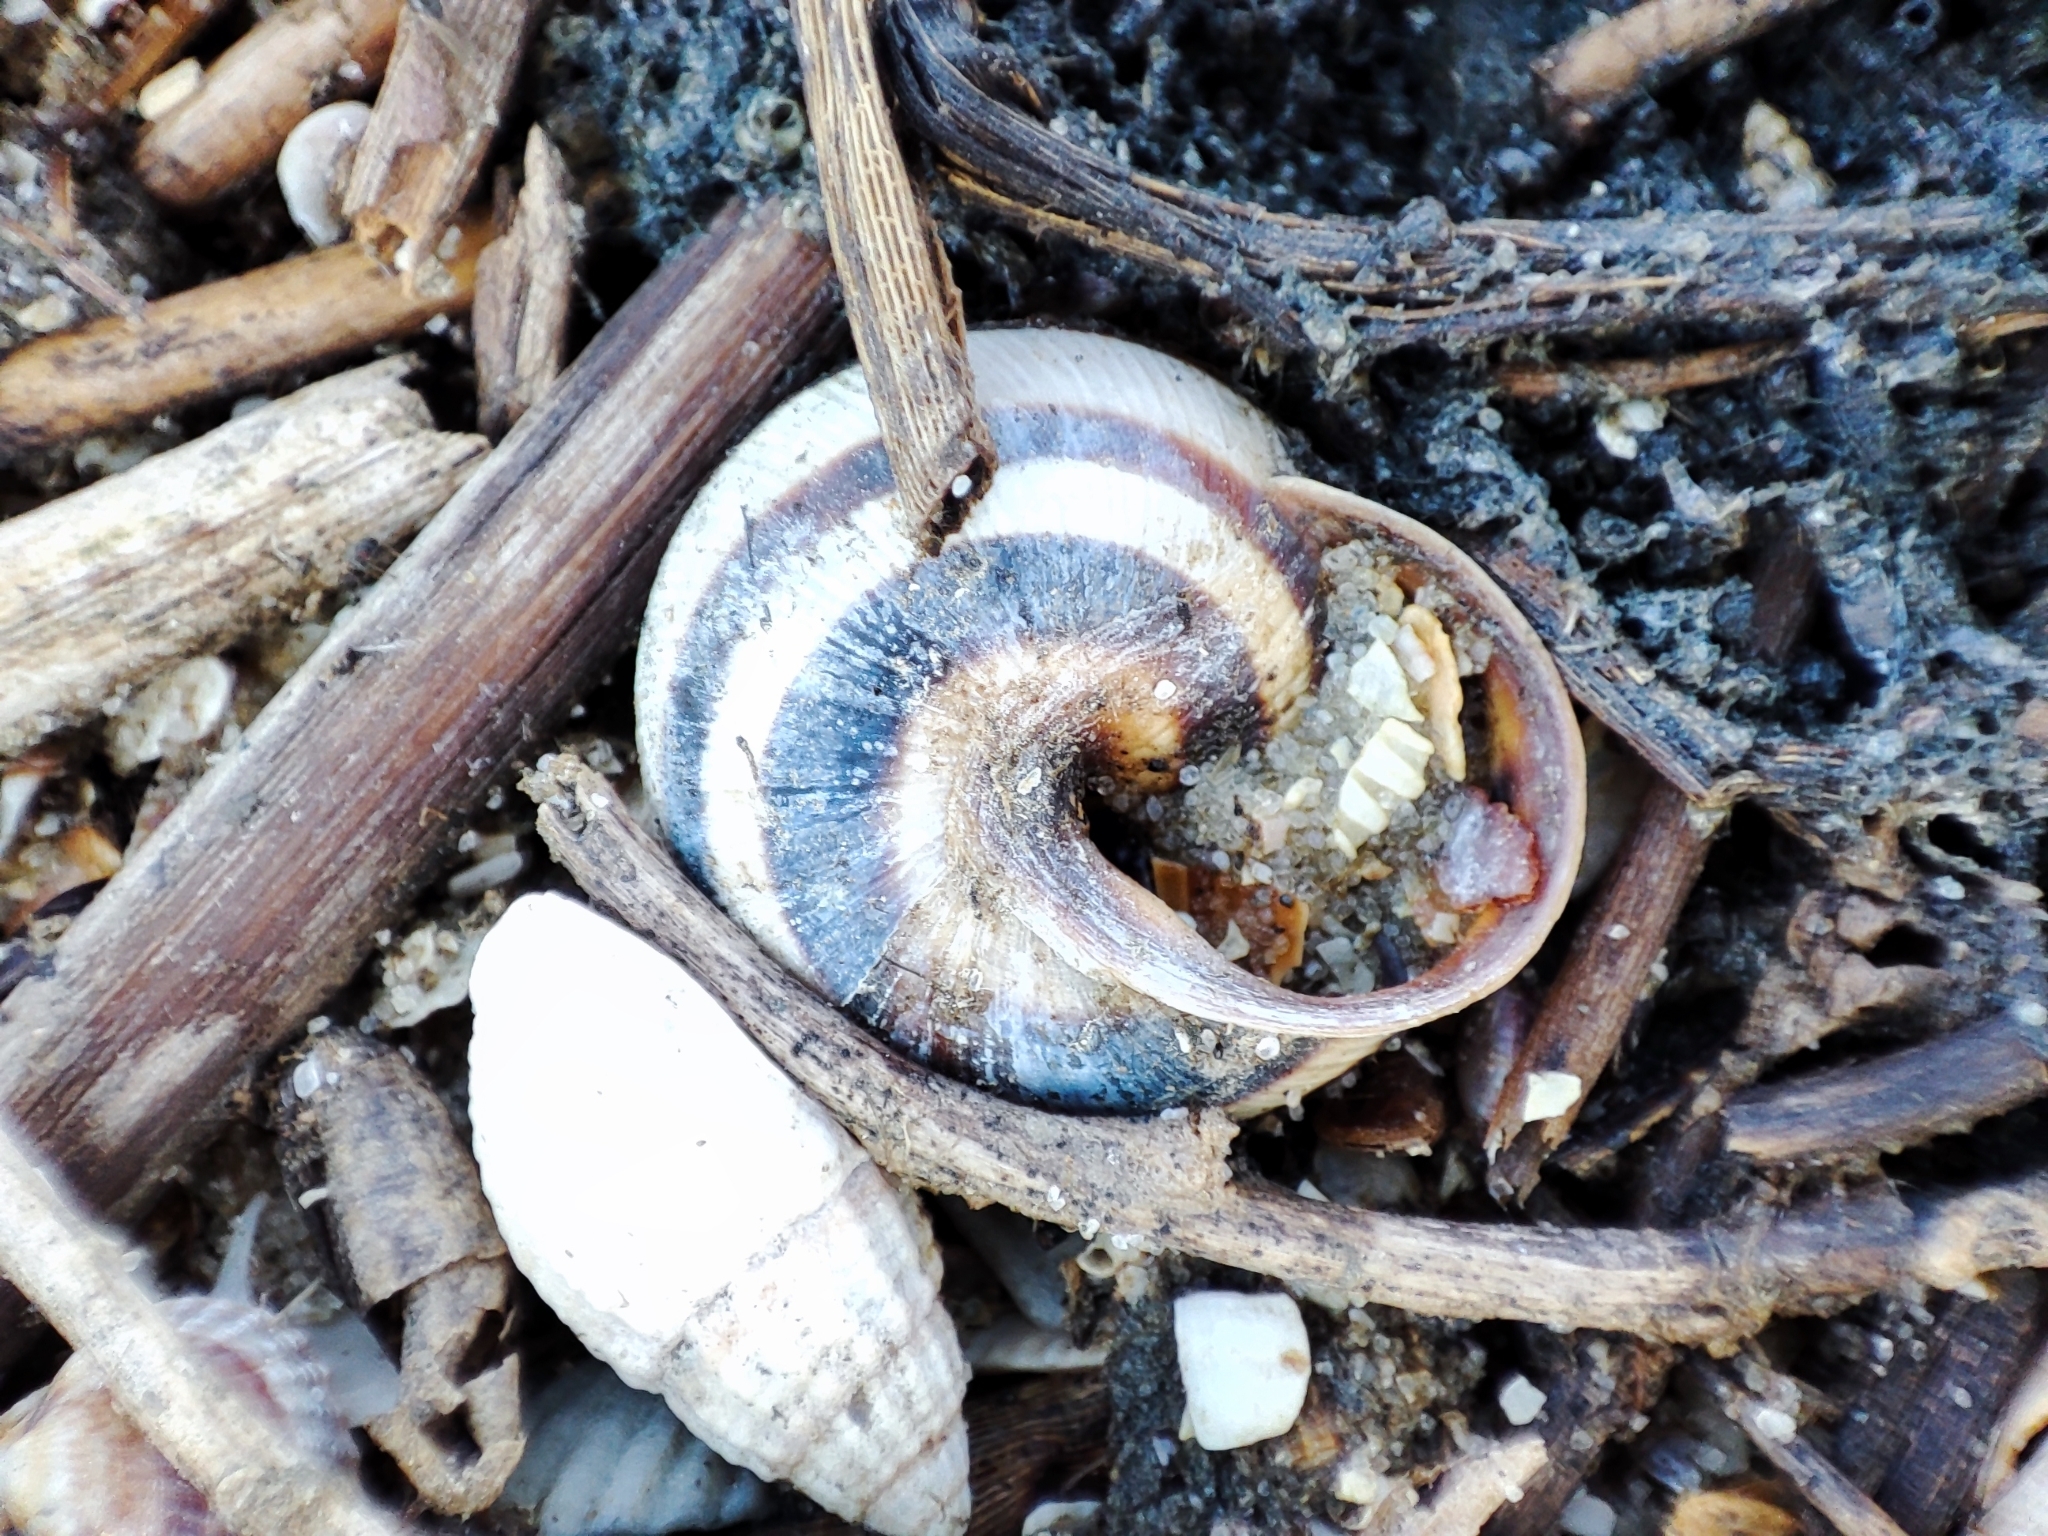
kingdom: Animalia
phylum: Mollusca
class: Gastropoda
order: Stylommatophora
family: Helicidae
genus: Caucasotachea
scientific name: Caucasotachea vindobonensis
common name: European helicid land snail
